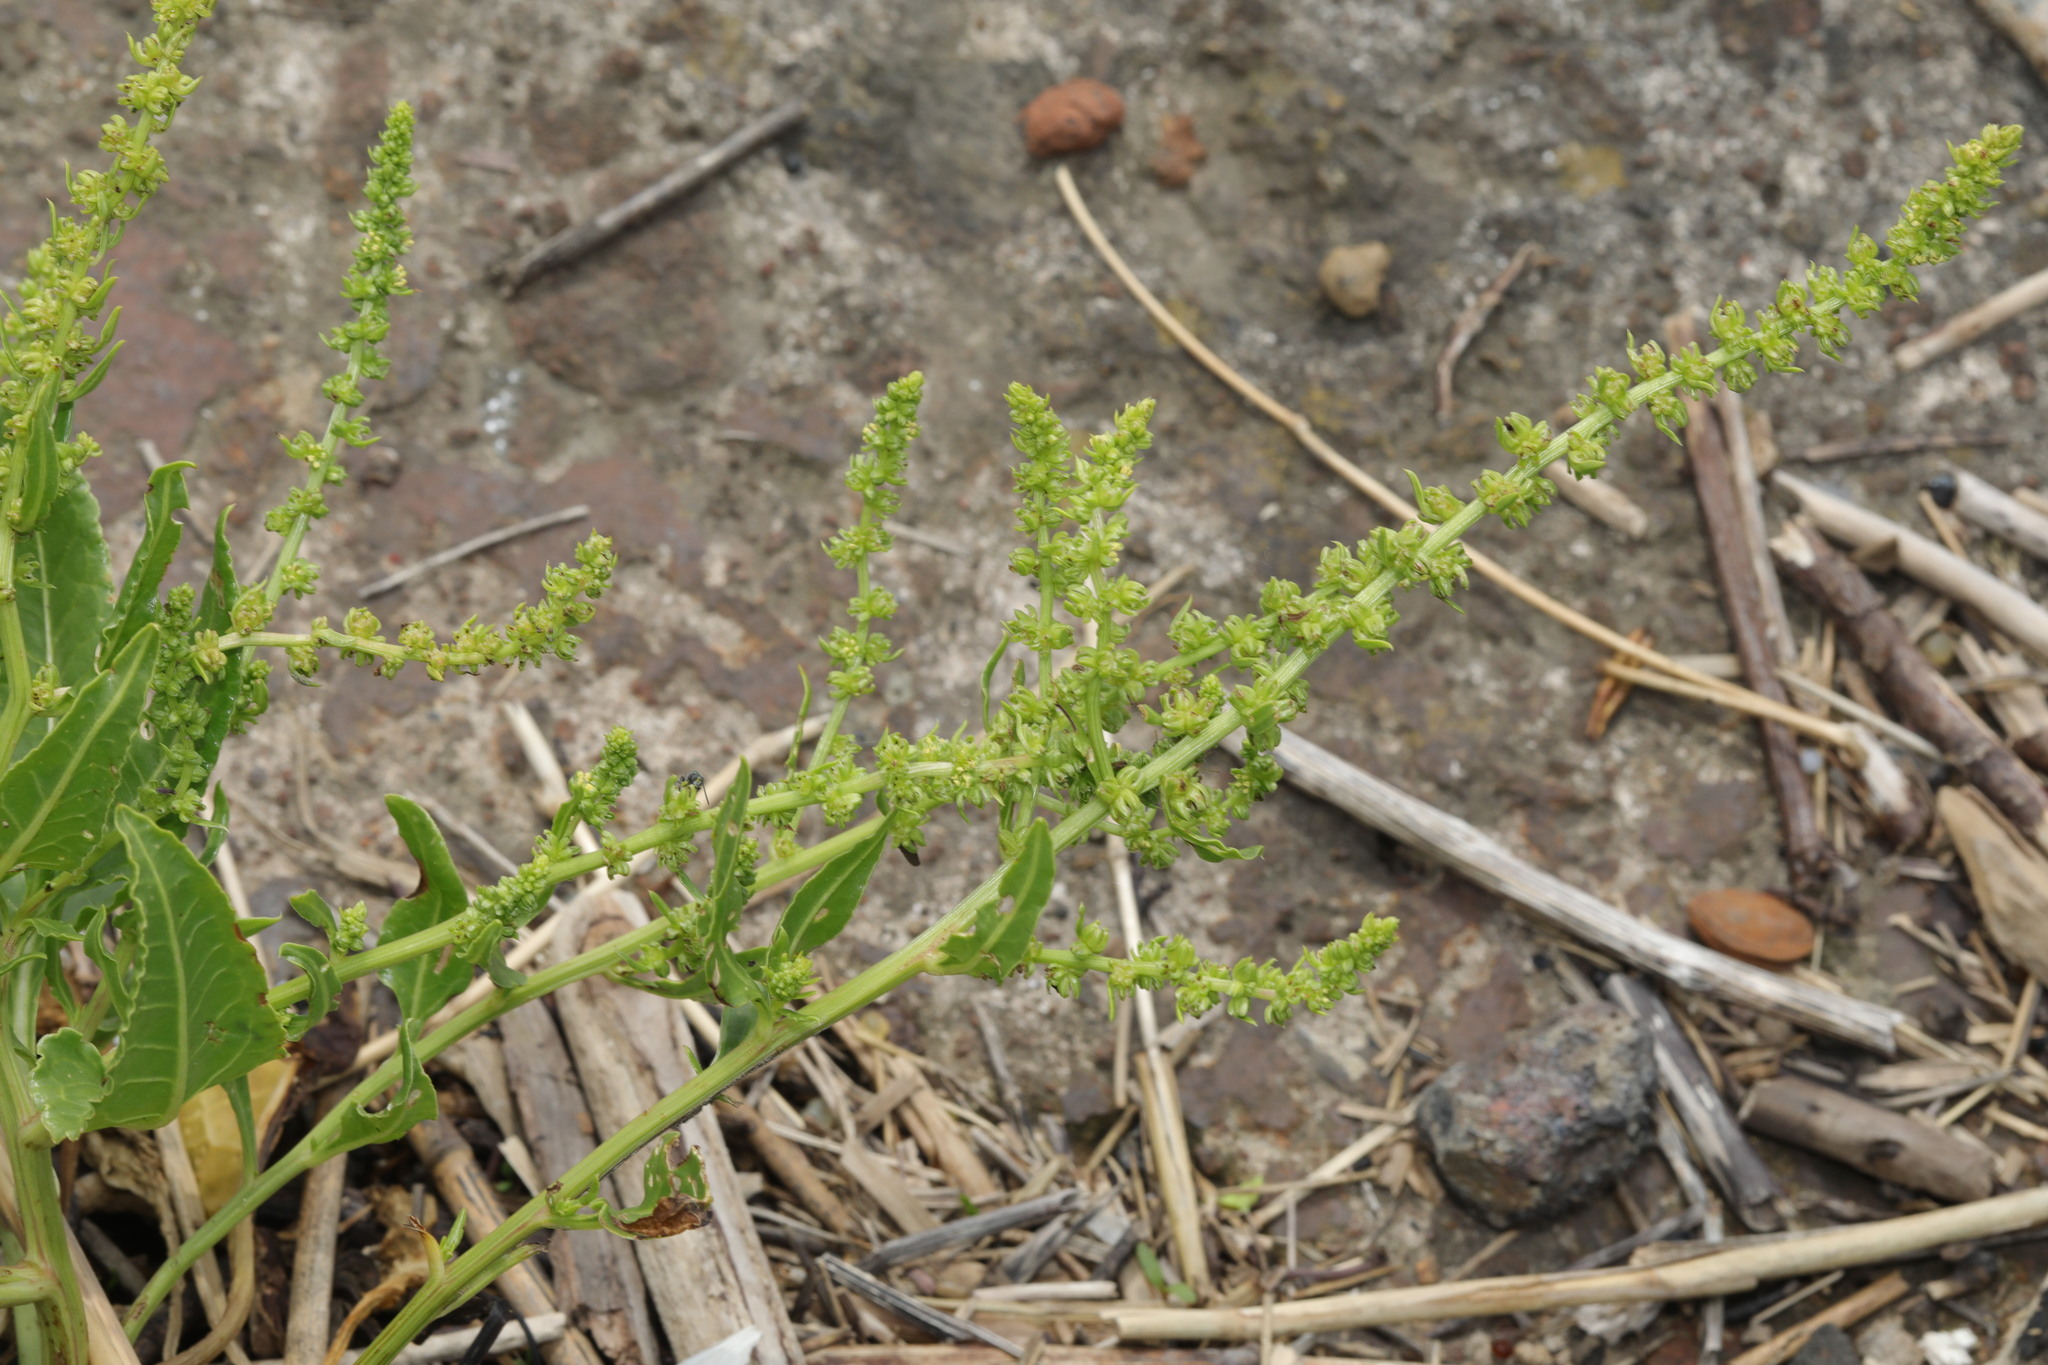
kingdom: Plantae
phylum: Tracheophyta
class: Magnoliopsida
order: Caryophyllales
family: Amaranthaceae
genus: Beta
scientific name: Beta vulgaris
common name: Beet
